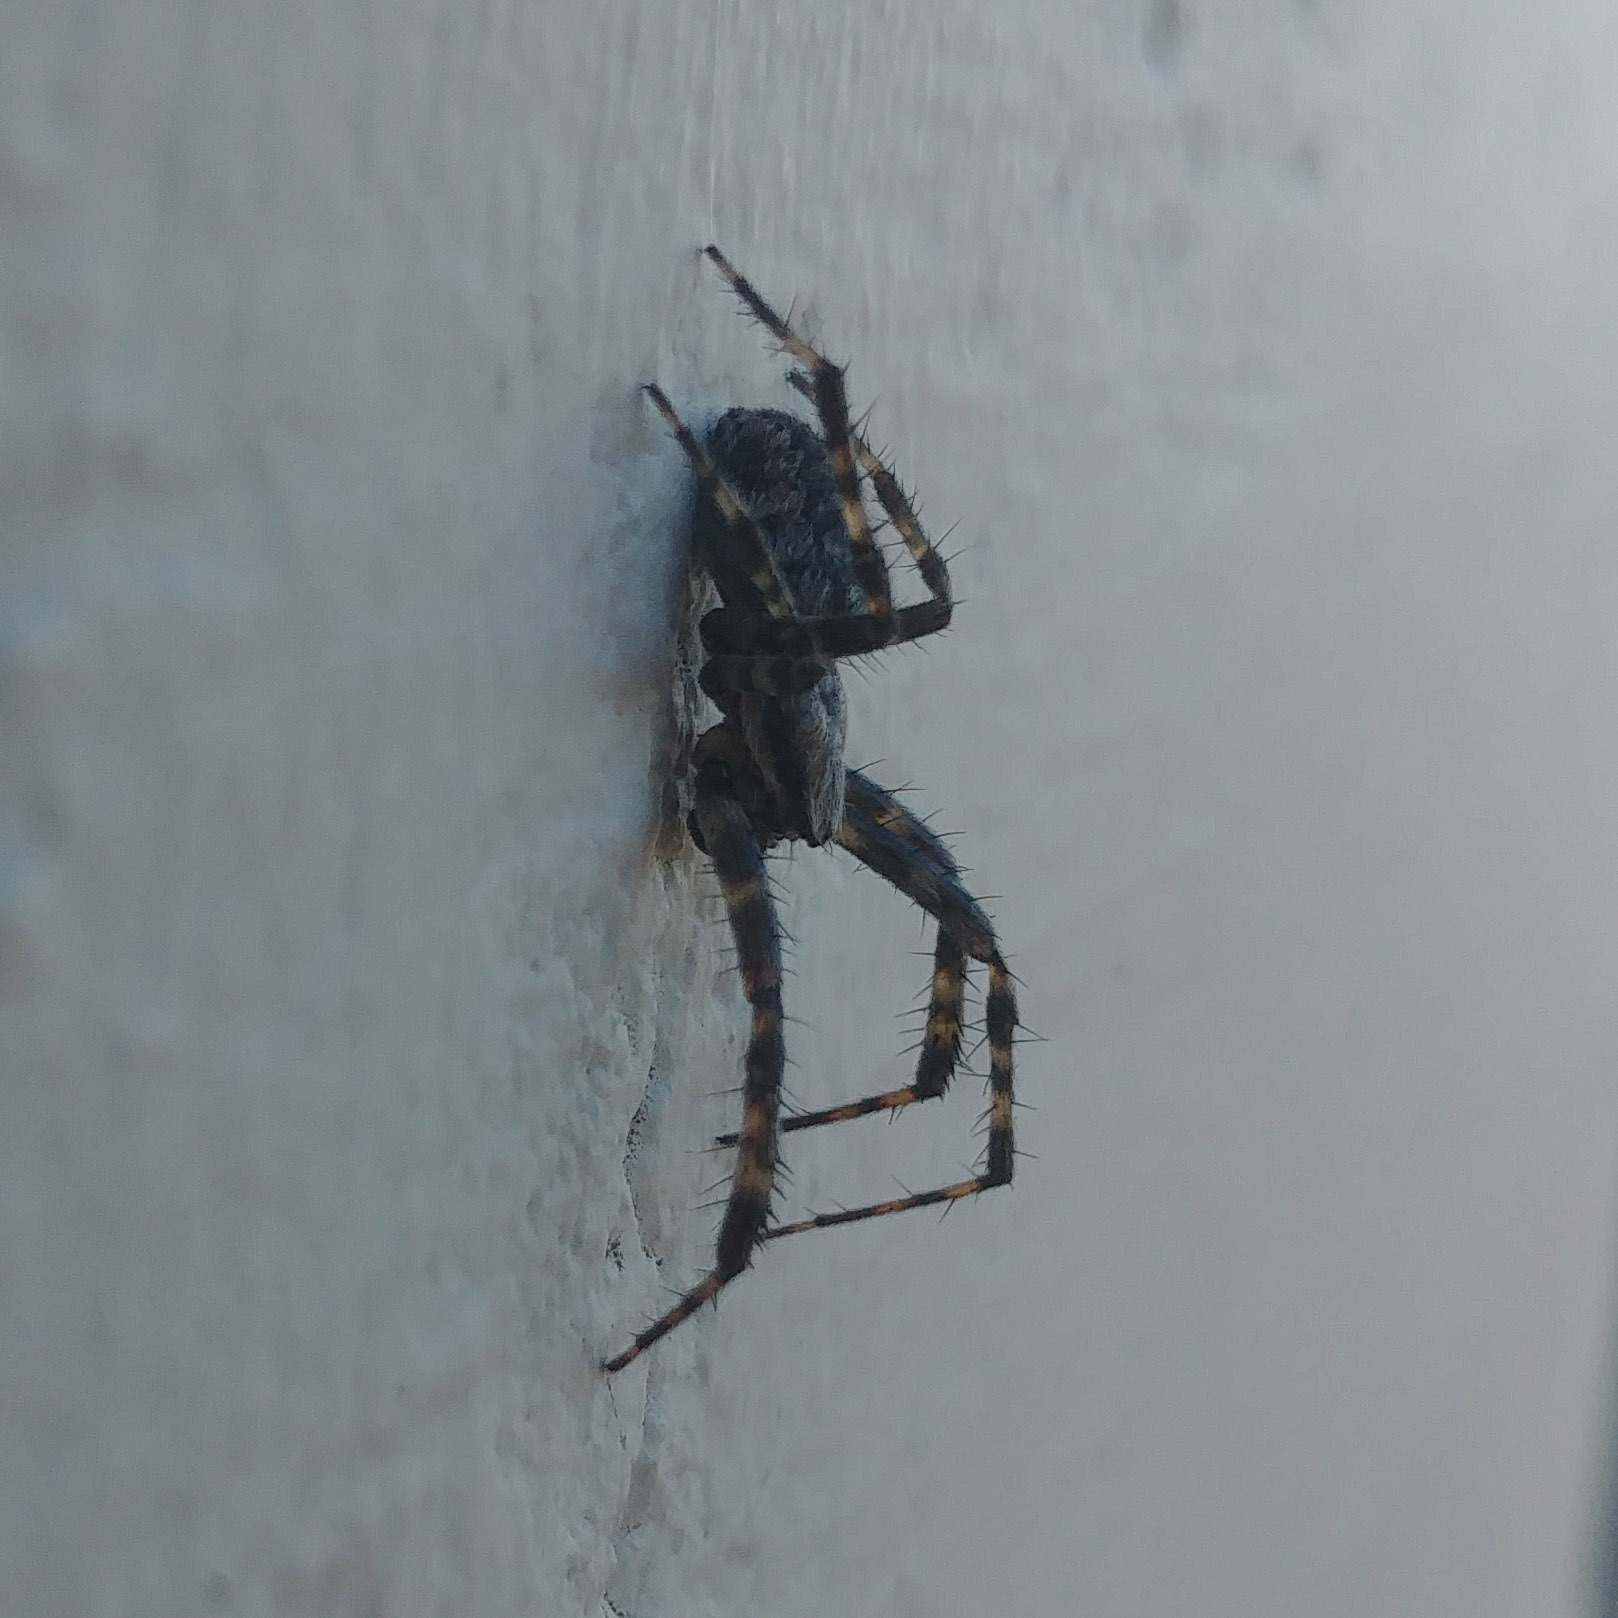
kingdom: Animalia
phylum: Arthropoda
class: Arachnida
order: Araneae
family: Araneidae
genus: Araneus
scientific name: Araneus diadematus
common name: Cross orbweaver
